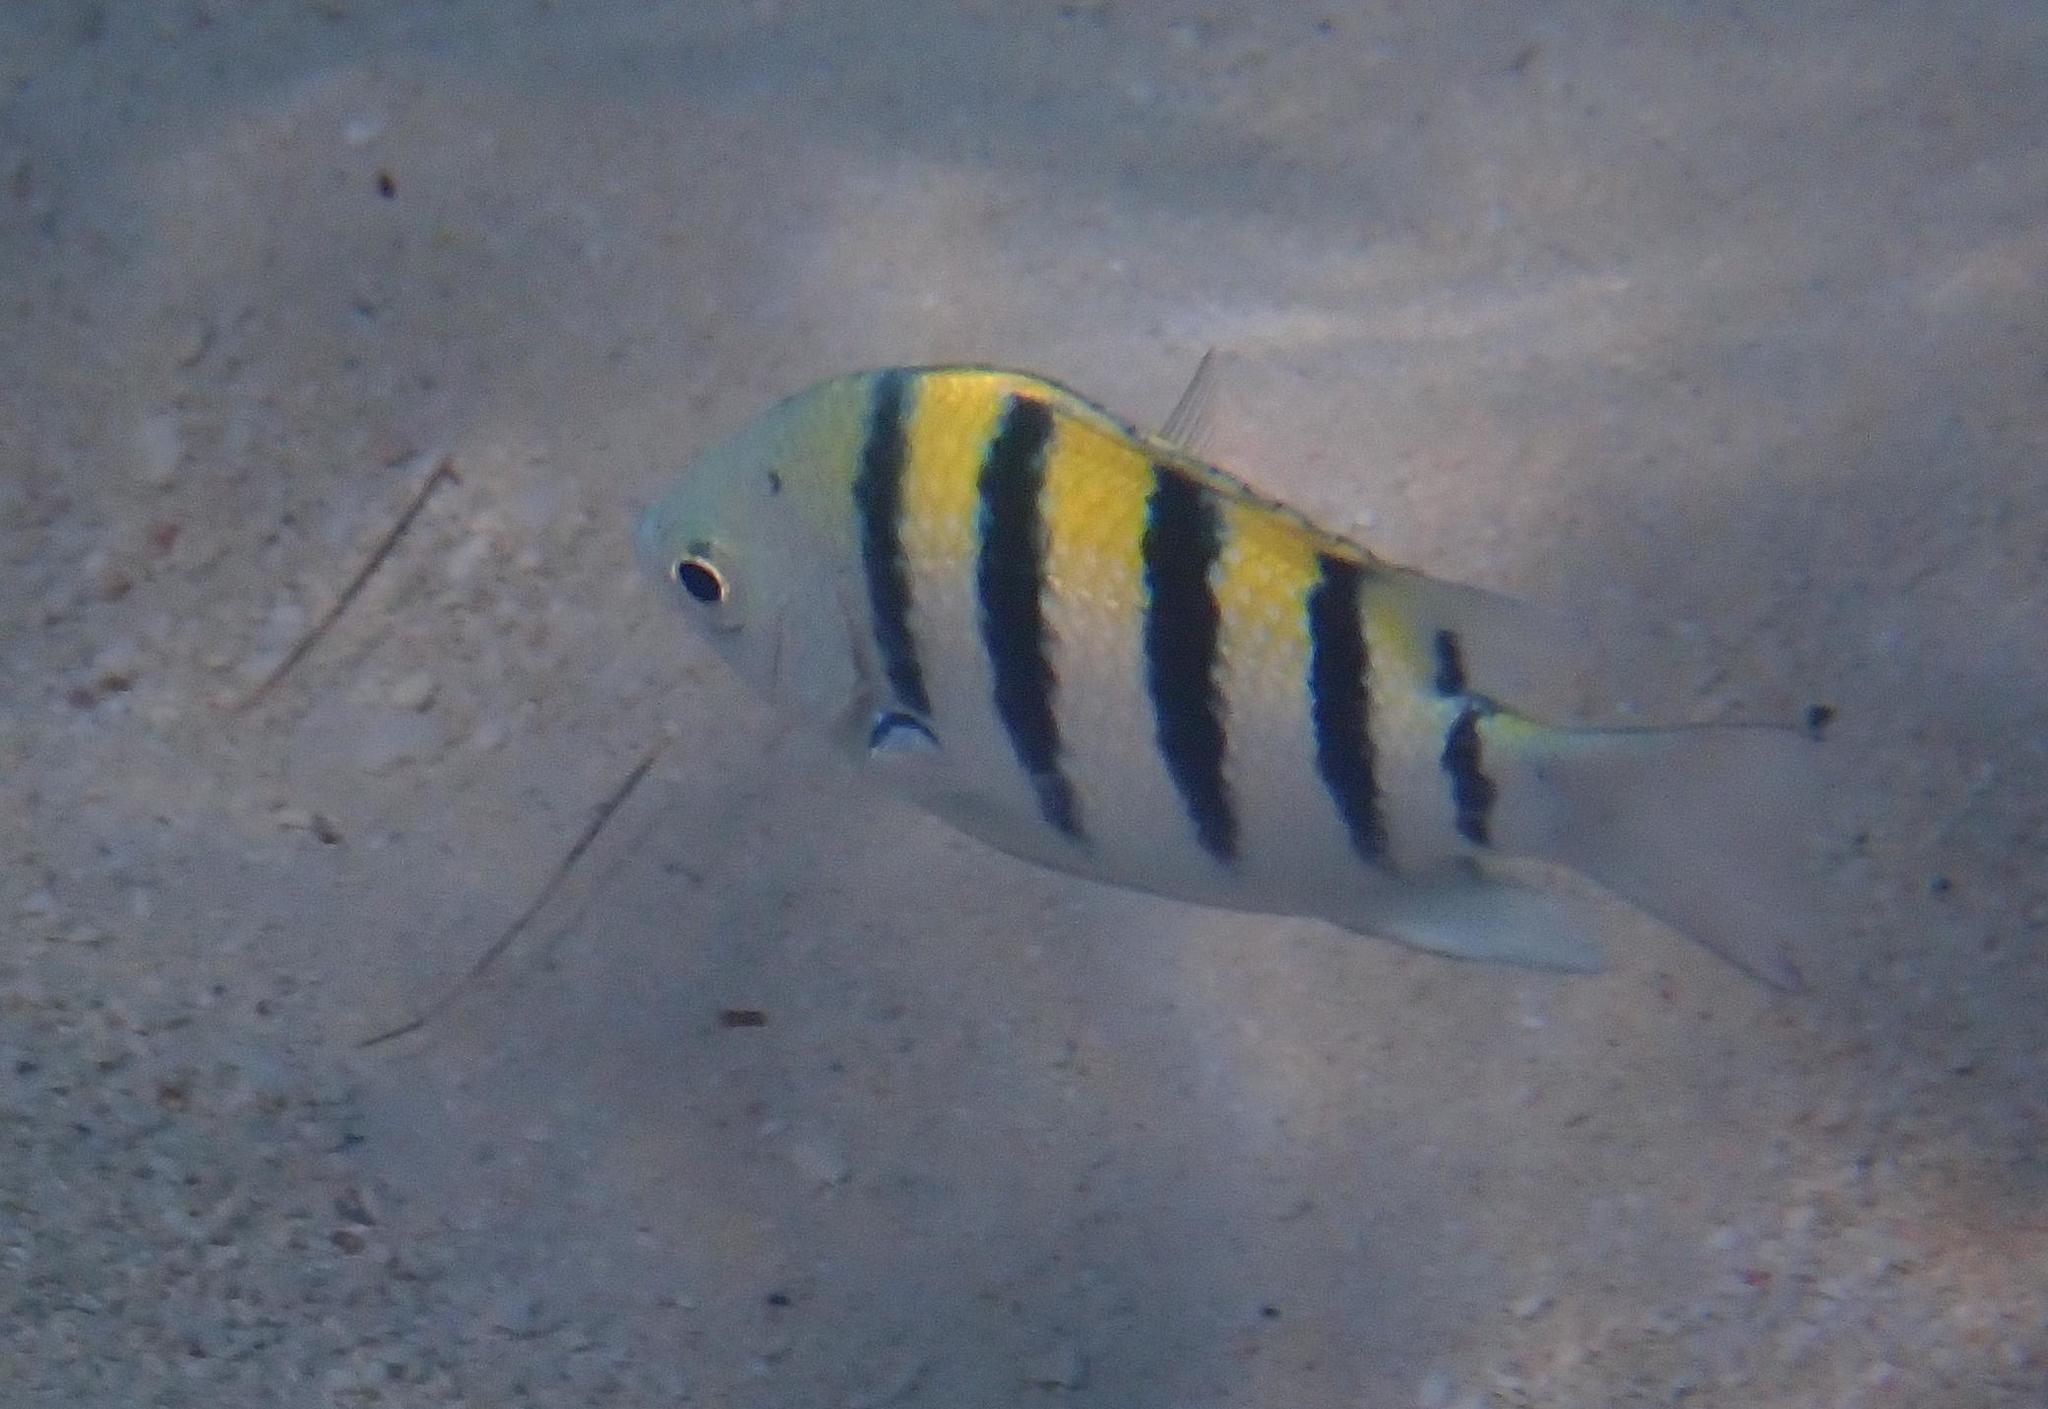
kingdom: Animalia
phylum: Chordata
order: Perciformes
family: Pomacentridae
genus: Abudefduf
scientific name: Abudefduf saxatilis
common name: Sergeant major
